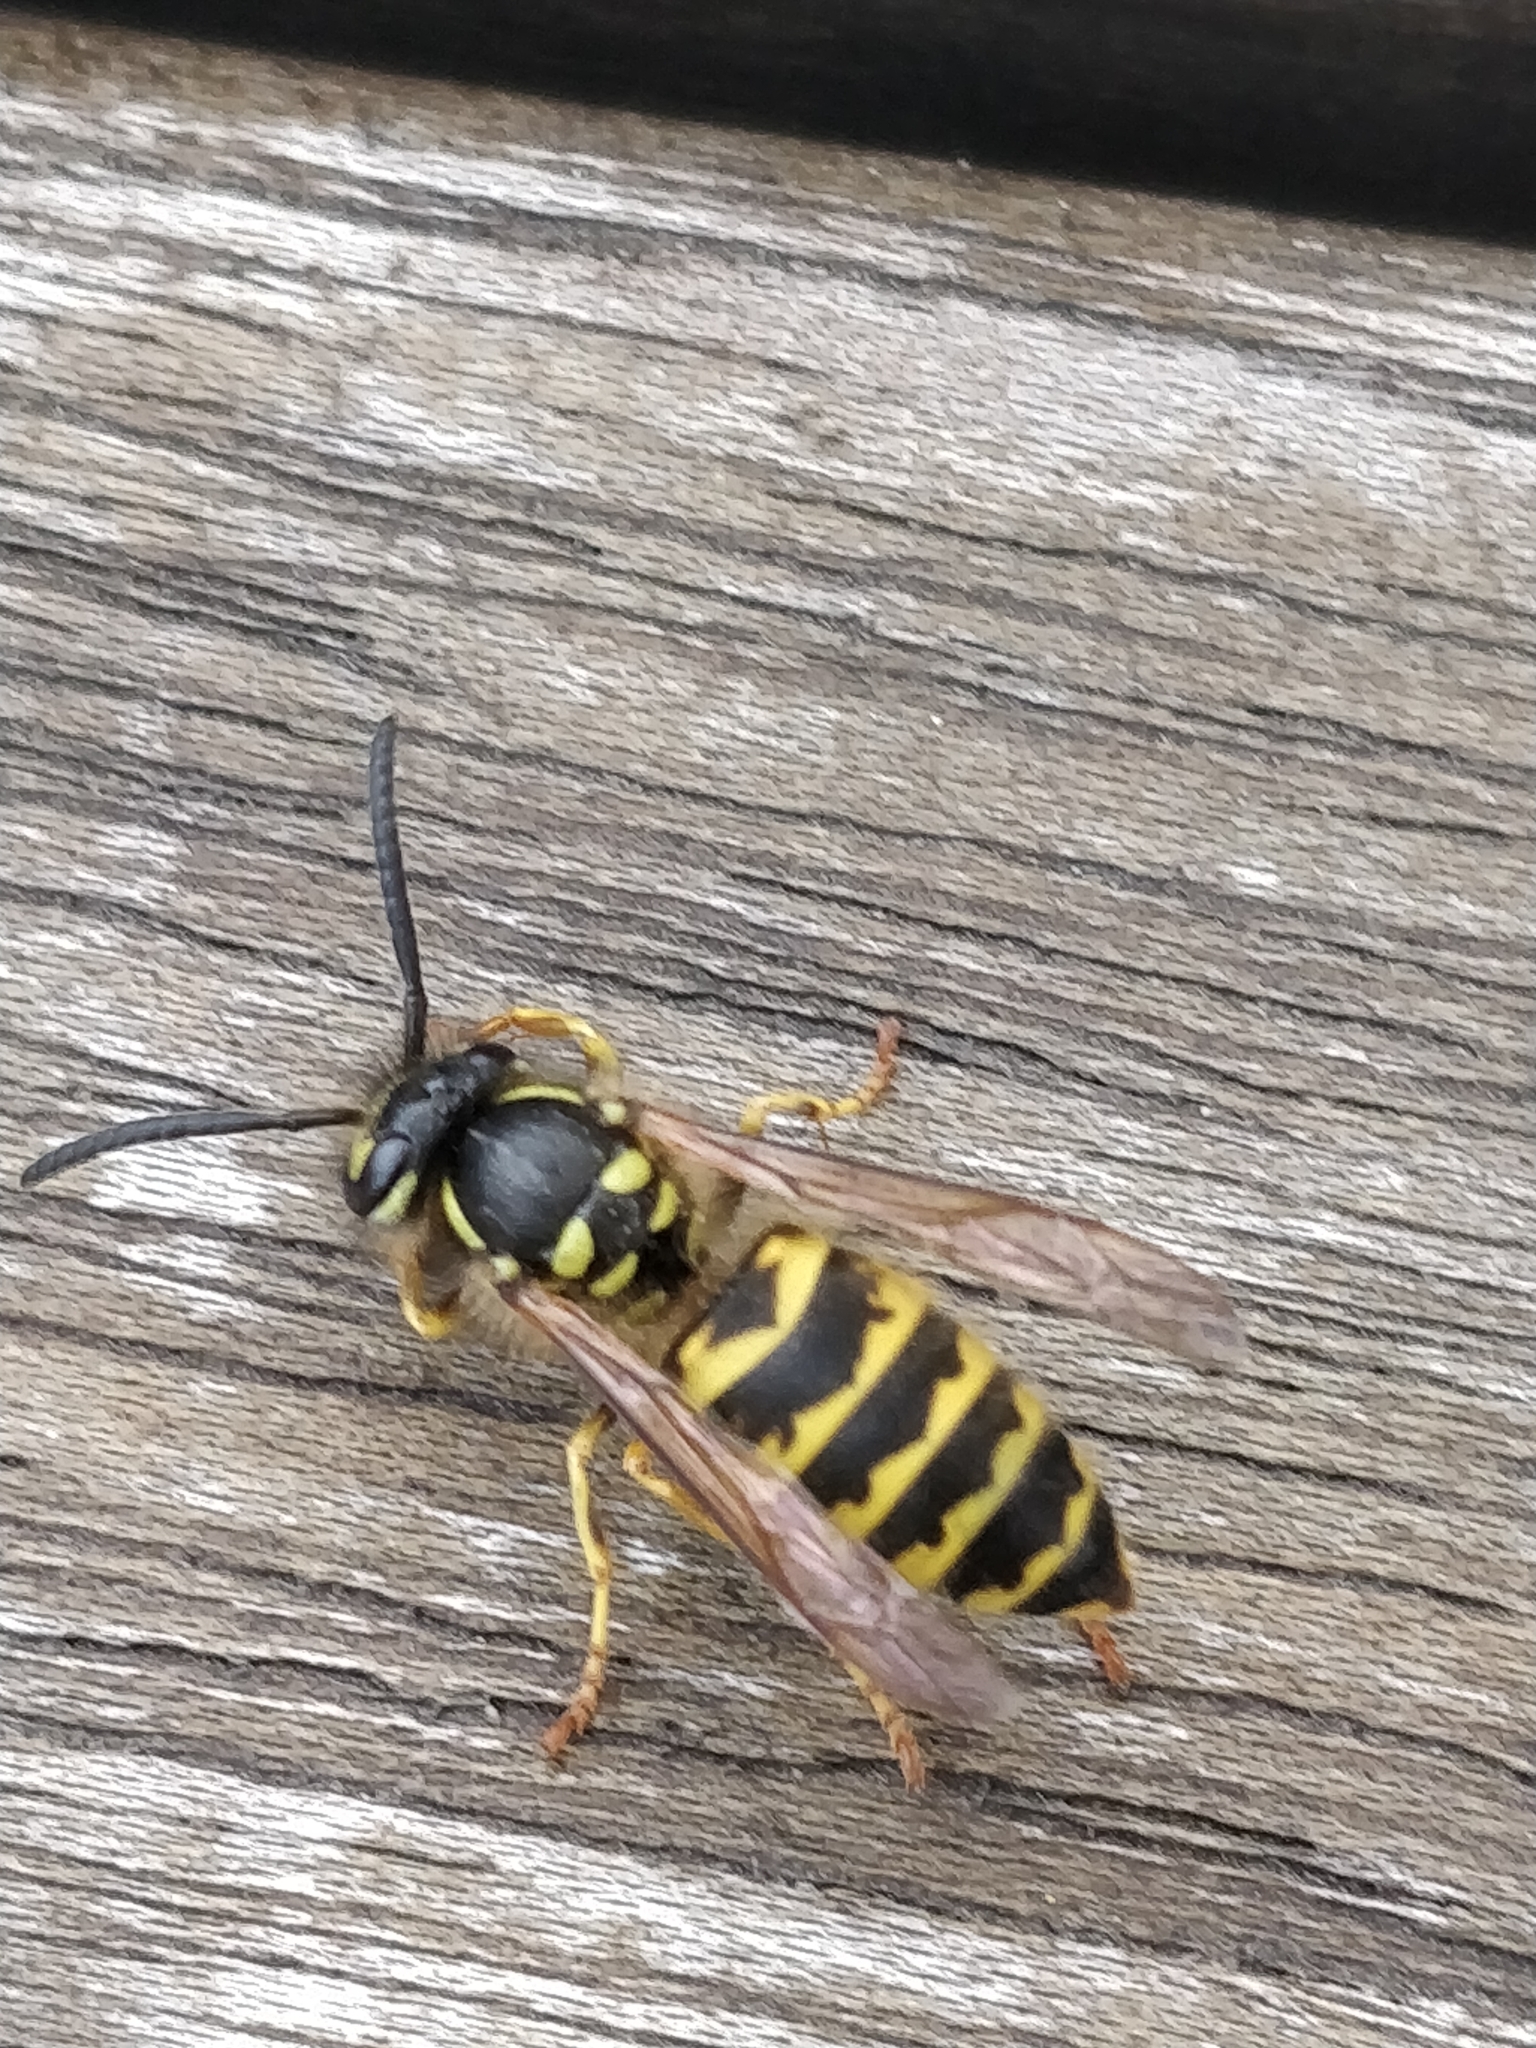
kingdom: Animalia
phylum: Arthropoda
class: Insecta
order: Hymenoptera
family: Vespidae
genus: Vespula
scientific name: Vespula vulgaris
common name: Common wasp
